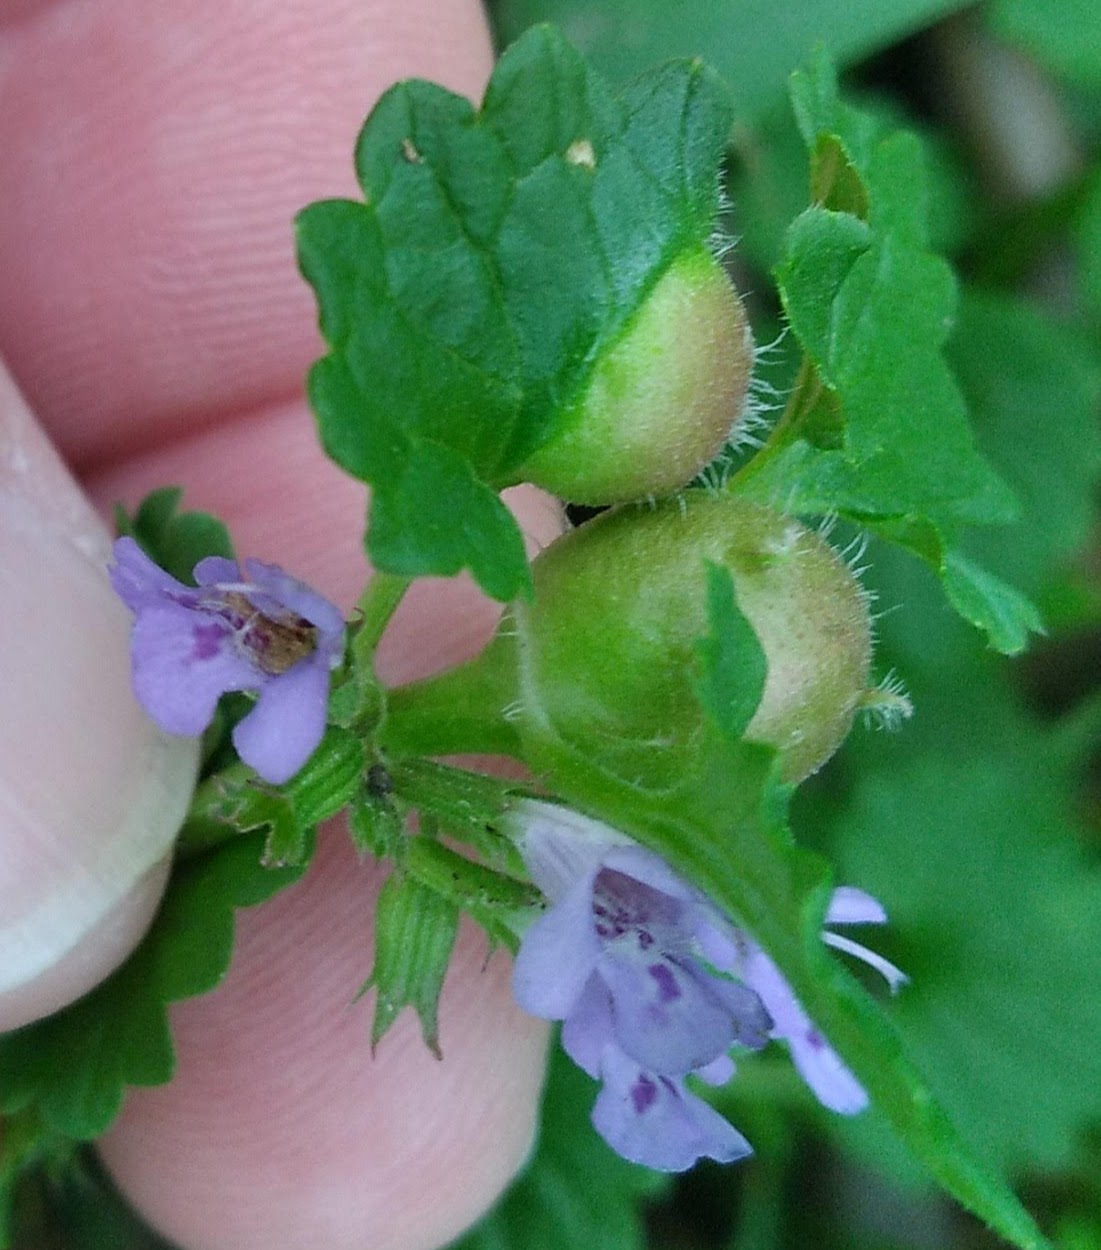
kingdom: Animalia
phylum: Arthropoda
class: Insecta
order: Hymenoptera
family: Cynipidae
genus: Liposthenes
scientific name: Liposthenes glechomae
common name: Gall wasp
